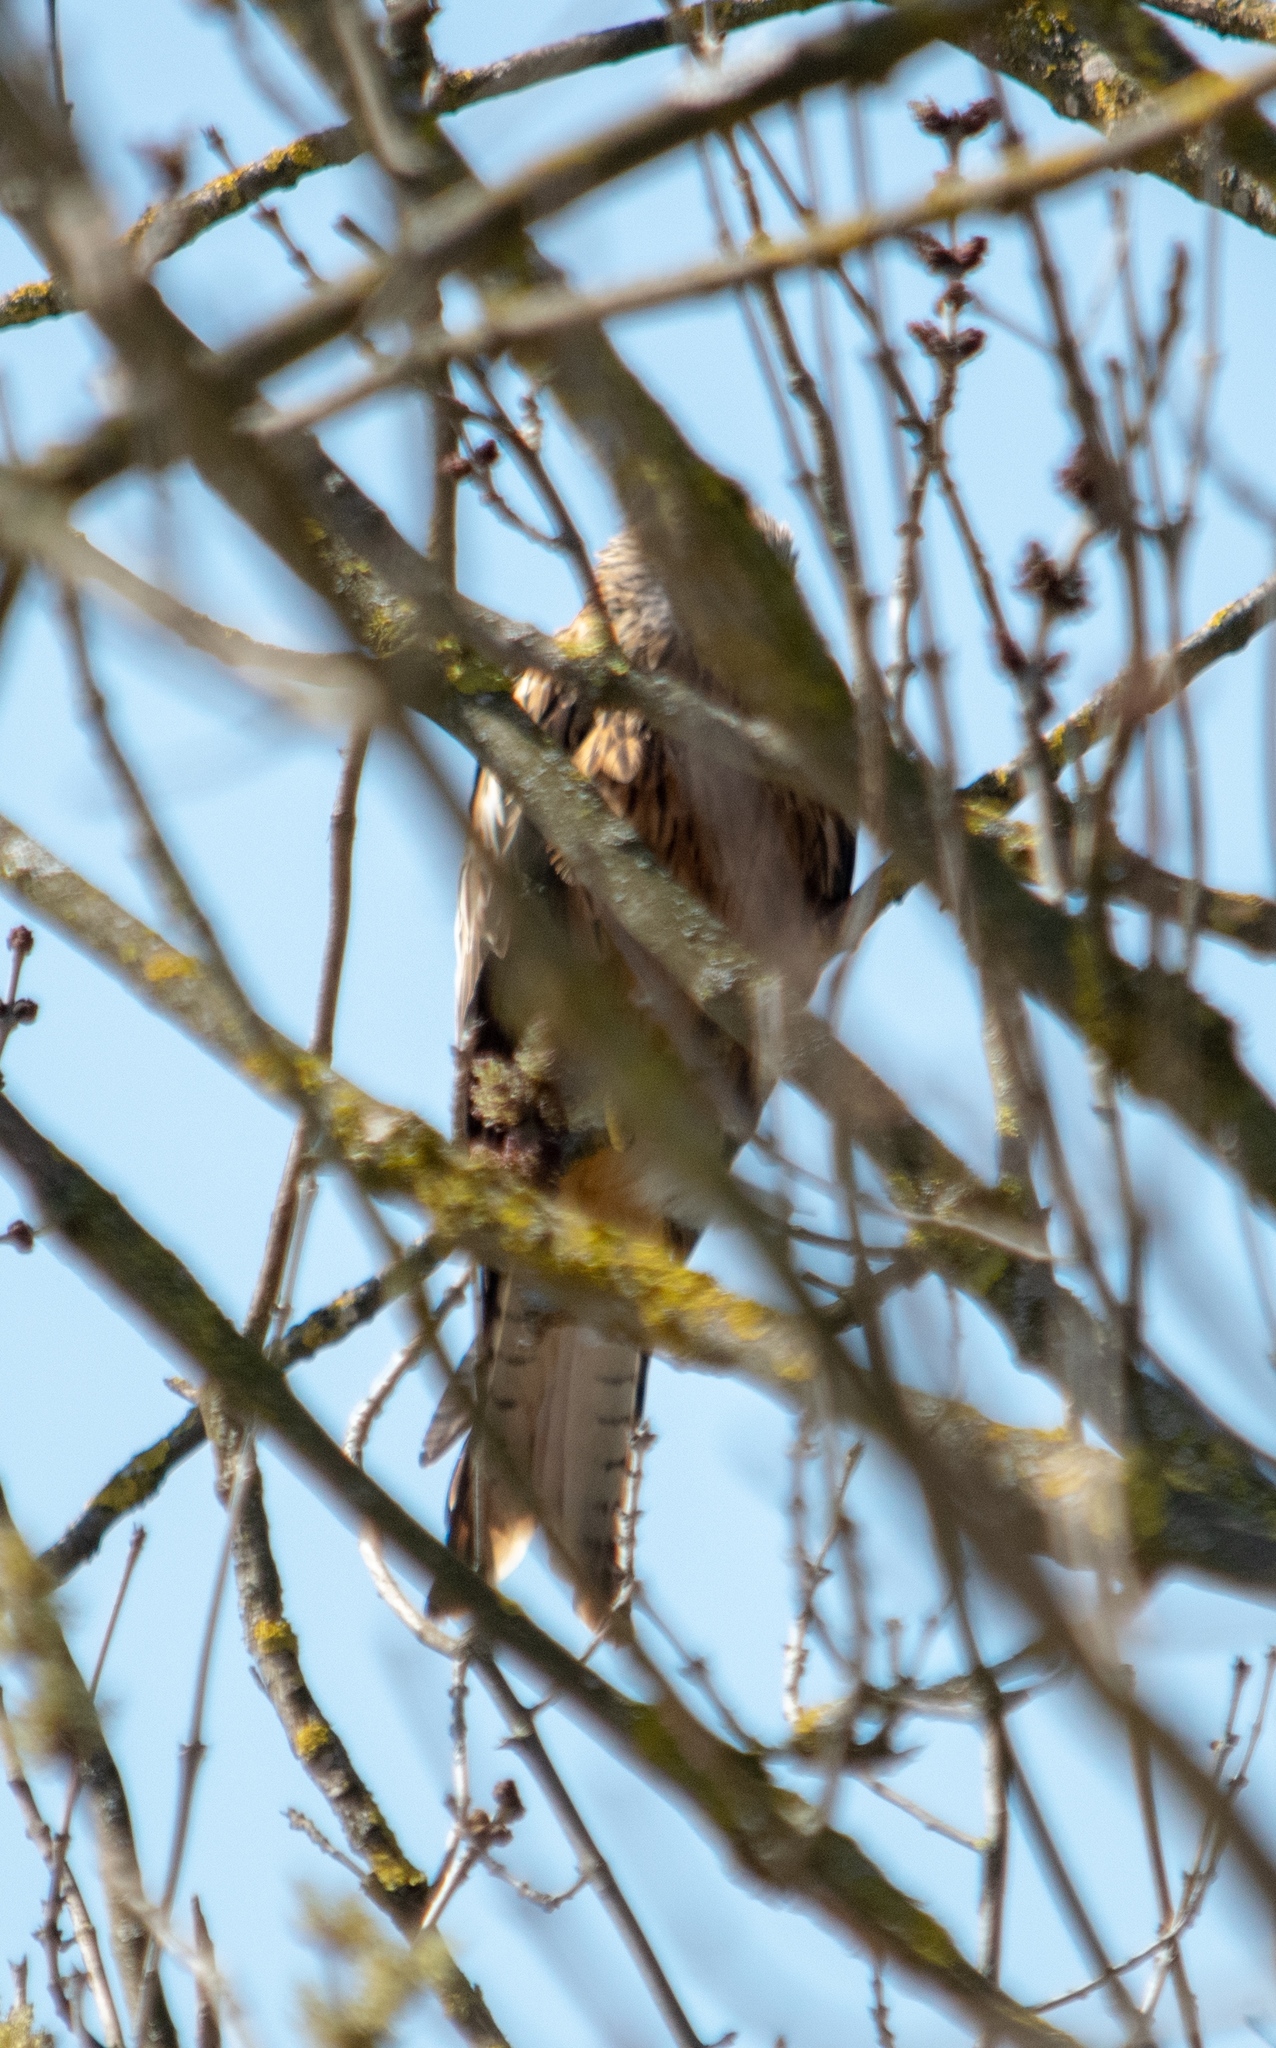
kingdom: Animalia
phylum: Chordata
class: Aves
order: Accipitriformes
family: Accipitridae
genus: Milvus
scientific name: Milvus milvus
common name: Red kite
